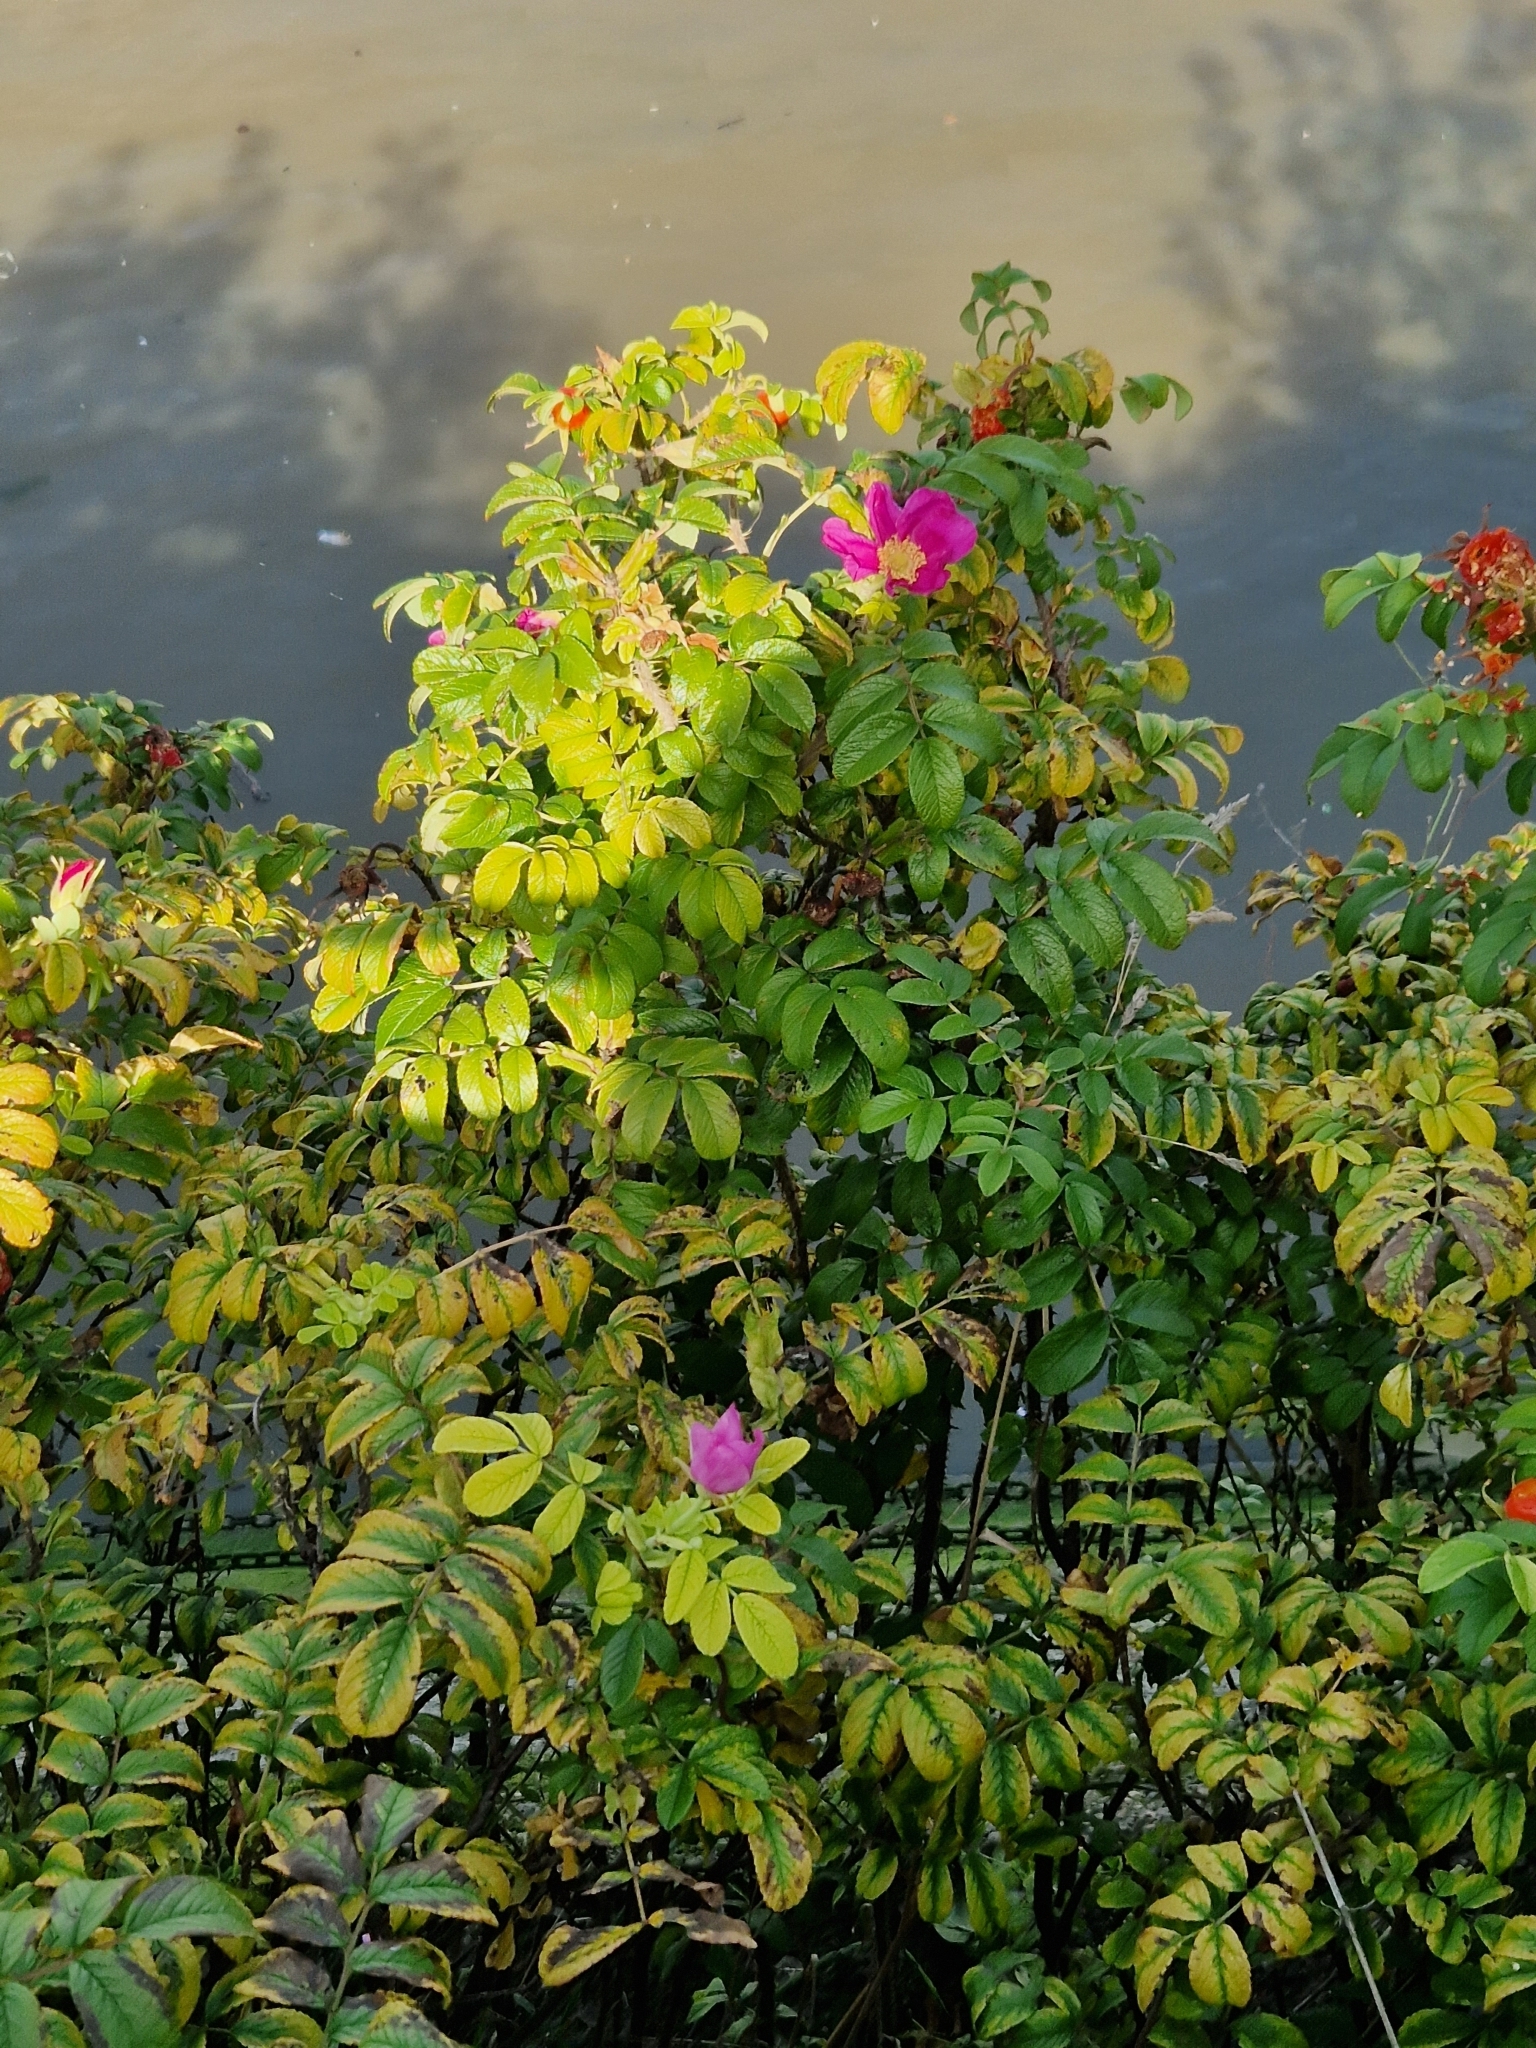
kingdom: Plantae
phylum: Tracheophyta
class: Magnoliopsida
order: Rosales
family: Rosaceae
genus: Rosa
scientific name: Rosa rugosa
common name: Japanese rose
